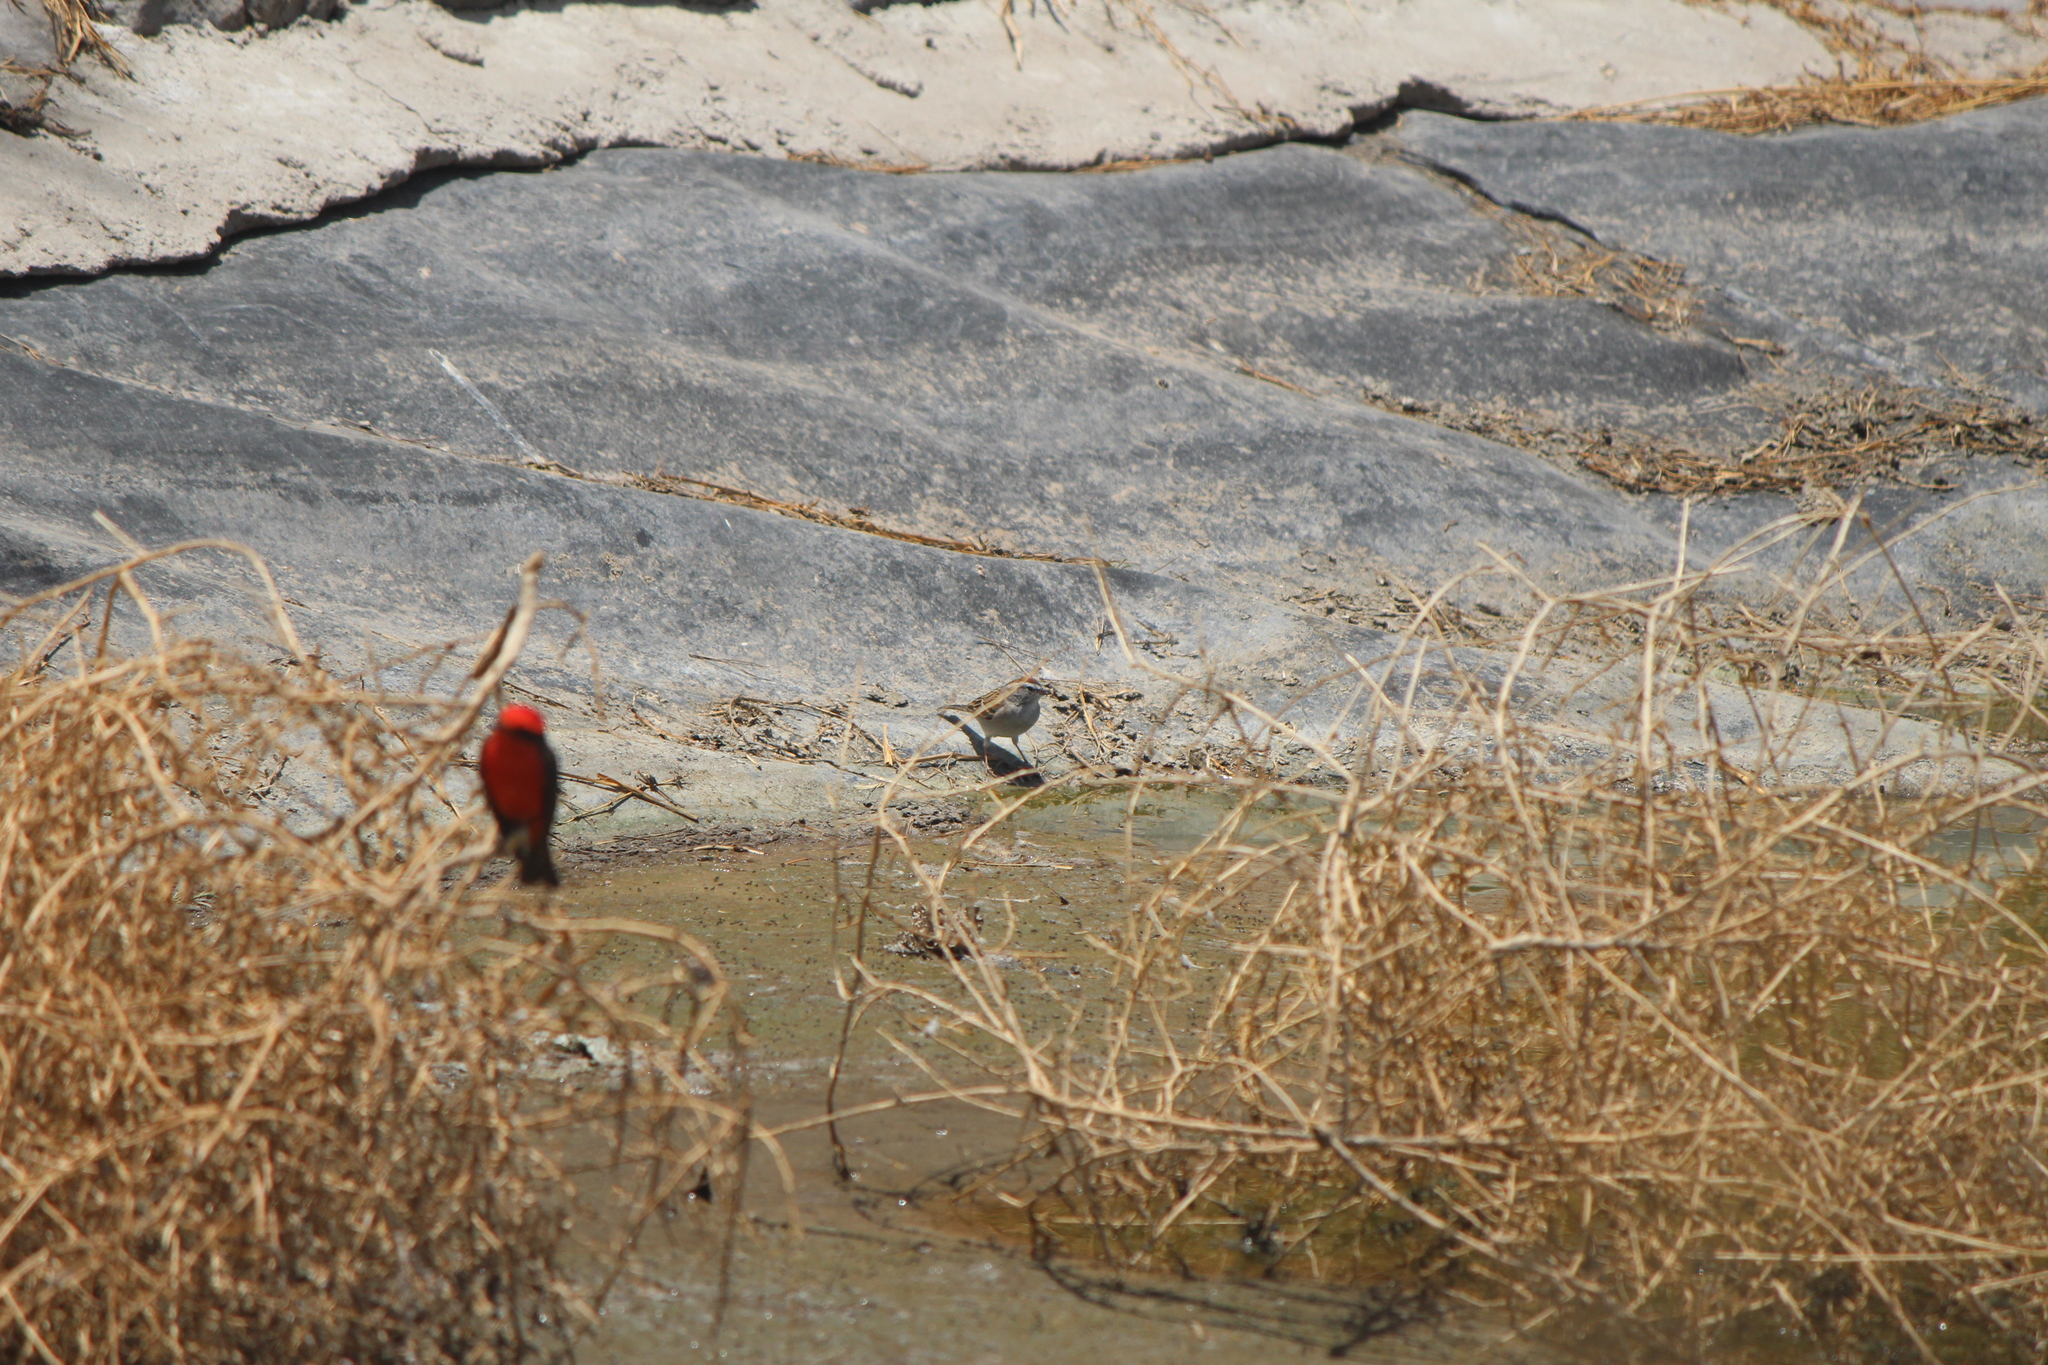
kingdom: Animalia
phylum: Chordata
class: Aves
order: Passeriformes
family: Passerellidae
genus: Spizella
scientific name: Spizella passerina
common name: Chipping sparrow
